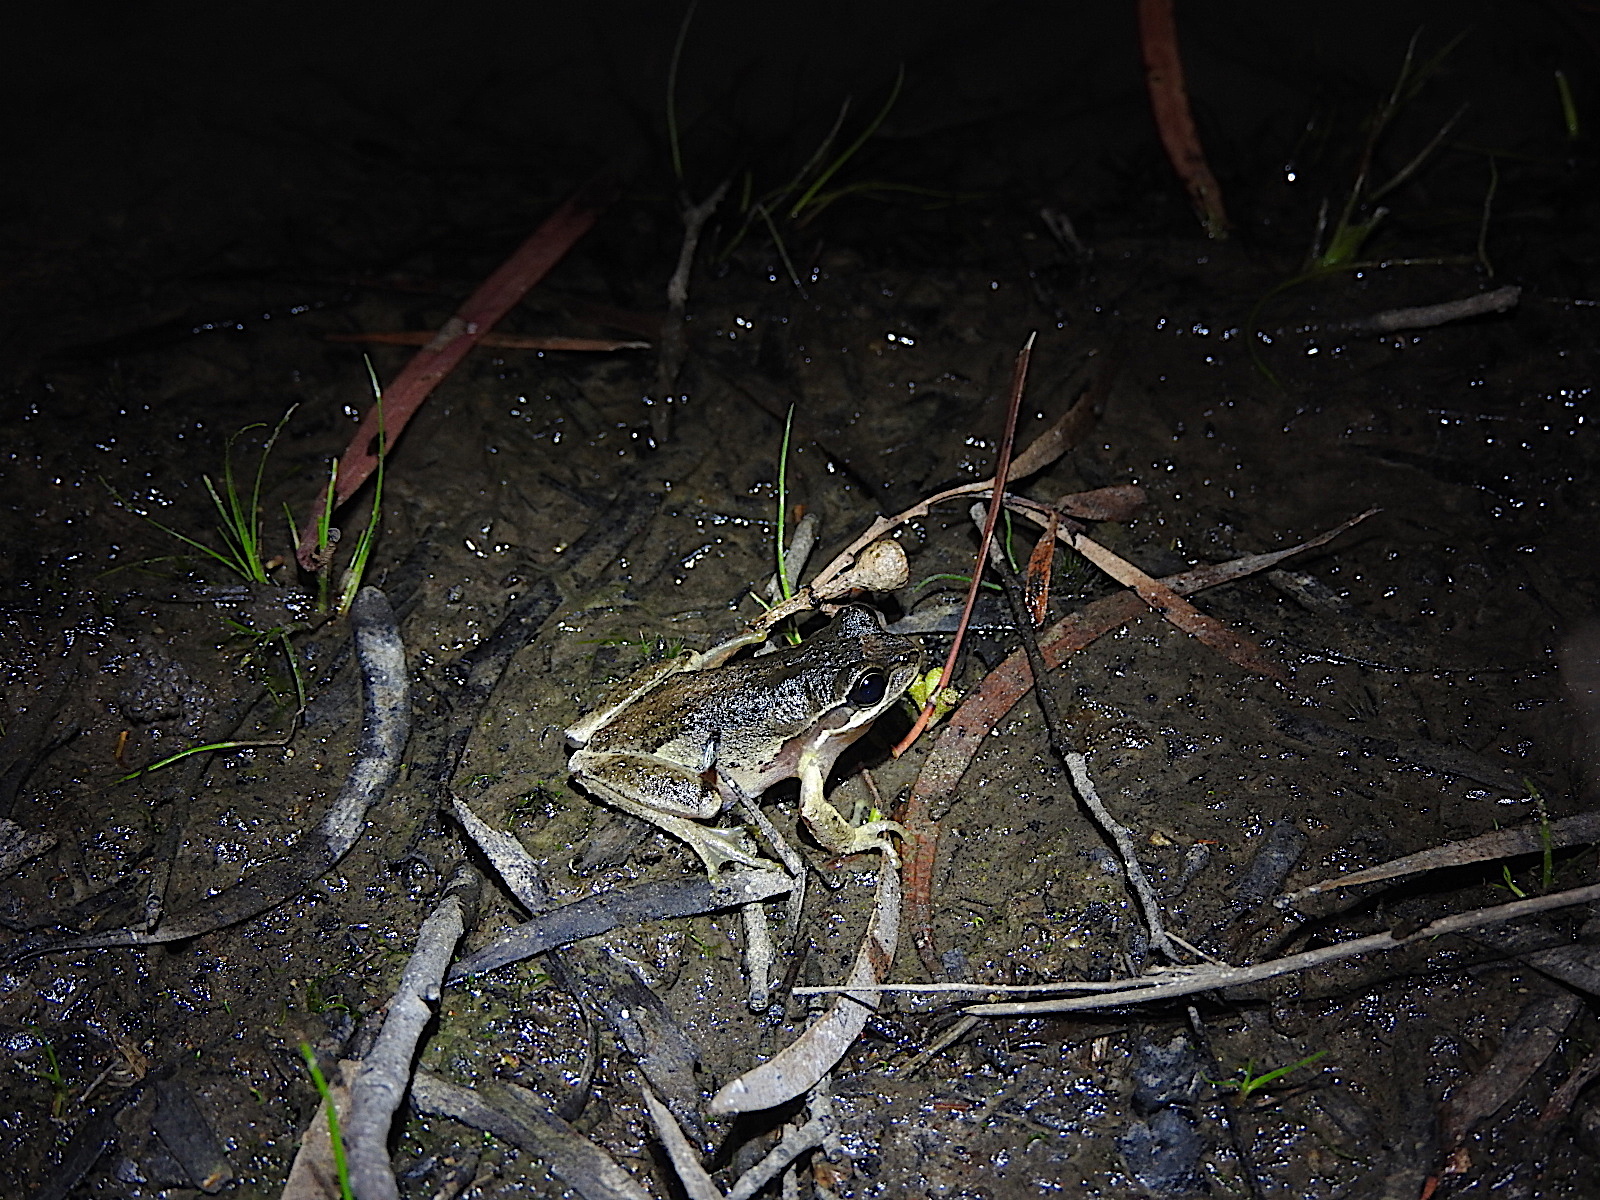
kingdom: Animalia
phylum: Chordata
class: Amphibia
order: Anura
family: Pelodryadidae
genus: Litoria
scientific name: Litoria ewingii
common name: Southern brown tree frog
